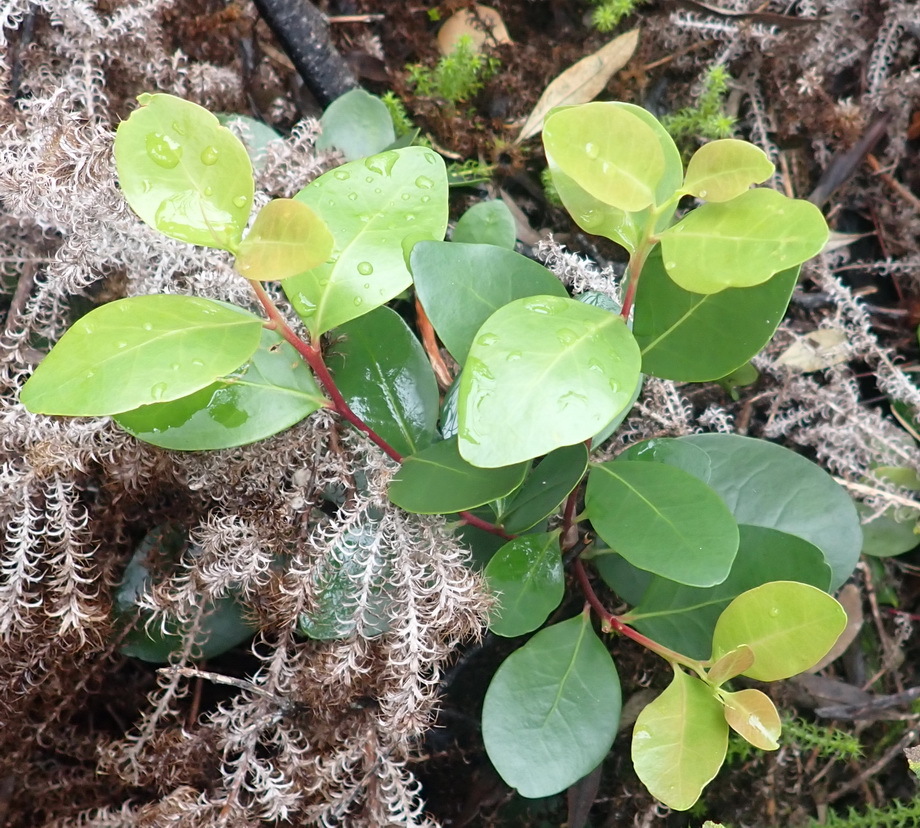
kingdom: Plantae
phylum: Tracheophyta
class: Magnoliopsida
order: Celastrales
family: Celastraceae
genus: Pterocelastrus
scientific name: Pterocelastrus tricuspidatus
